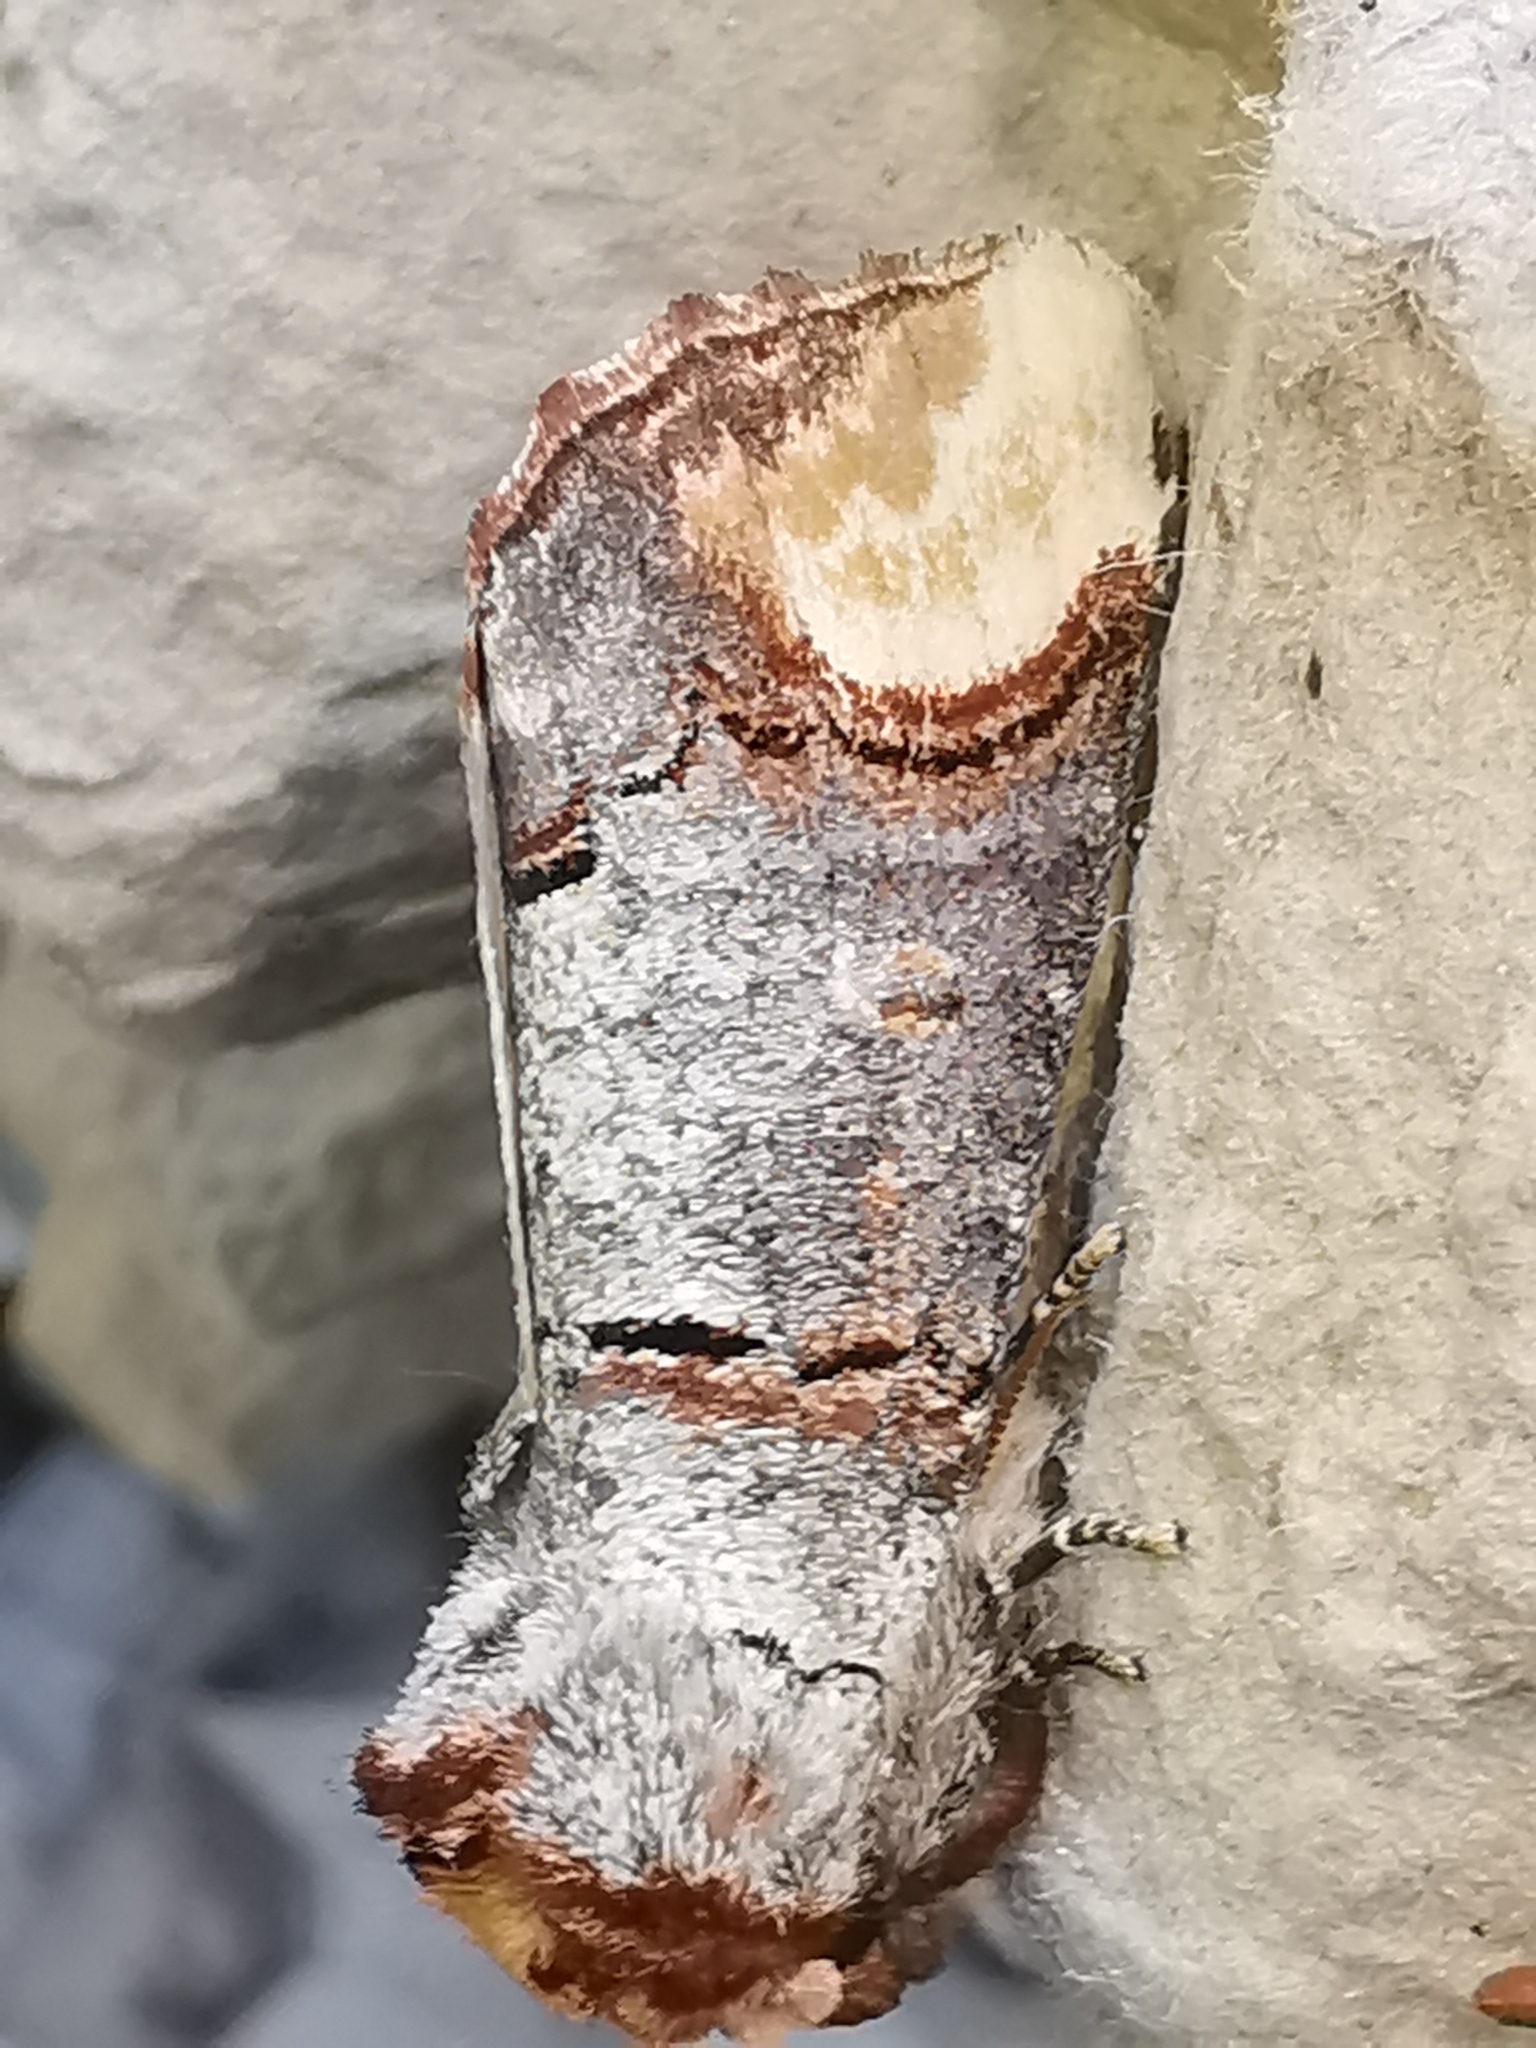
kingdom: Animalia
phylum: Arthropoda
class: Insecta
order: Lepidoptera
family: Notodontidae
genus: Phalera
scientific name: Phalera bucephala
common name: Buff-tip
